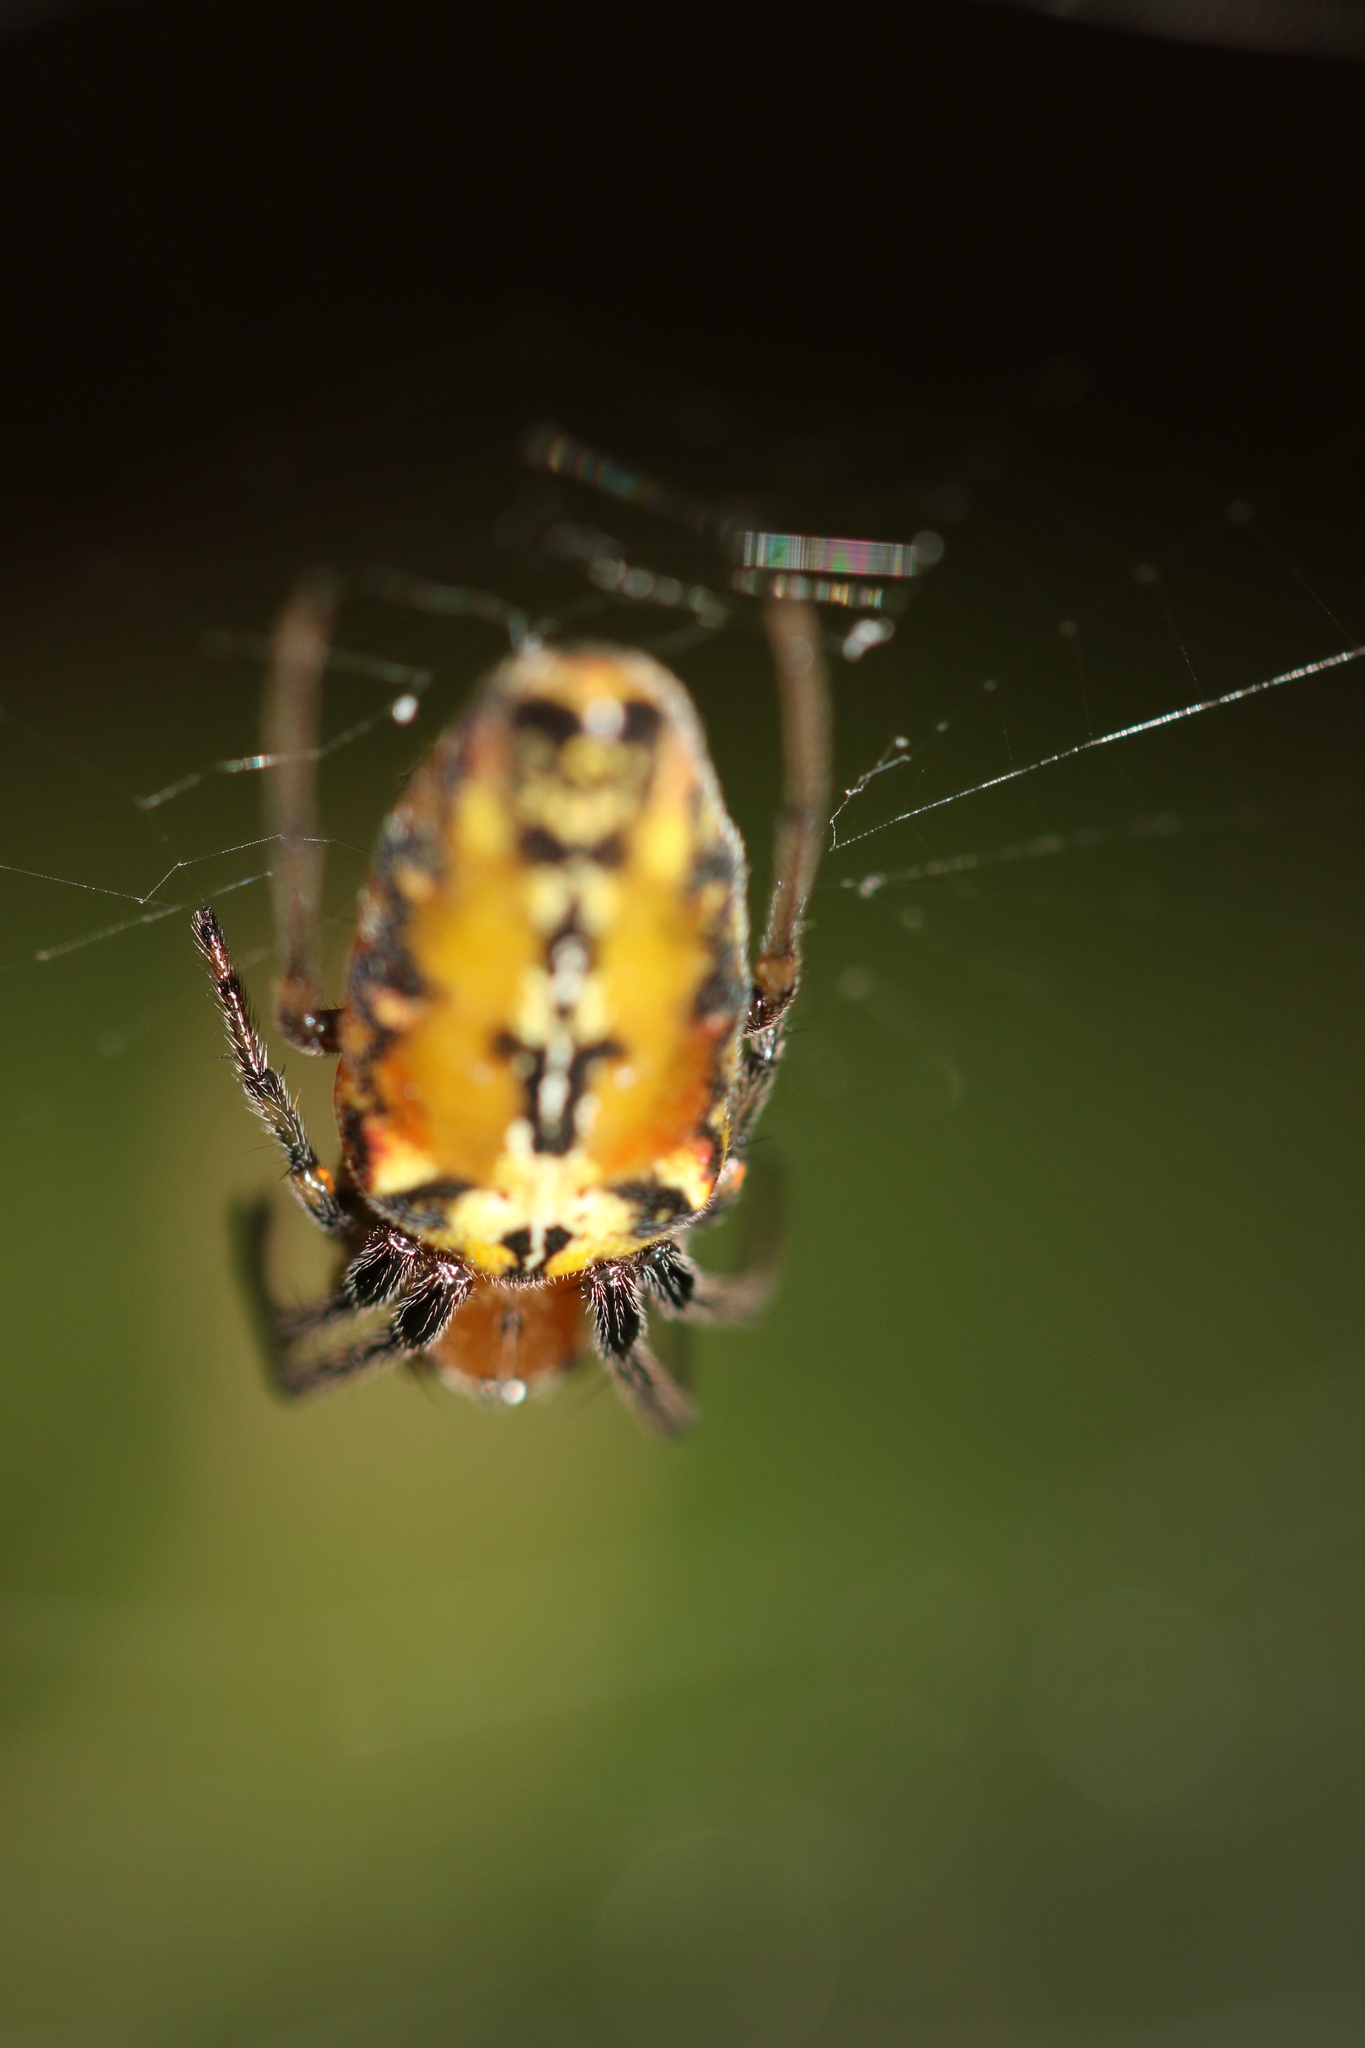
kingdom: Animalia
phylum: Arthropoda
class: Arachnida
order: Araneae
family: Araneidae
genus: Alpaida
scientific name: Alpaida scriba
